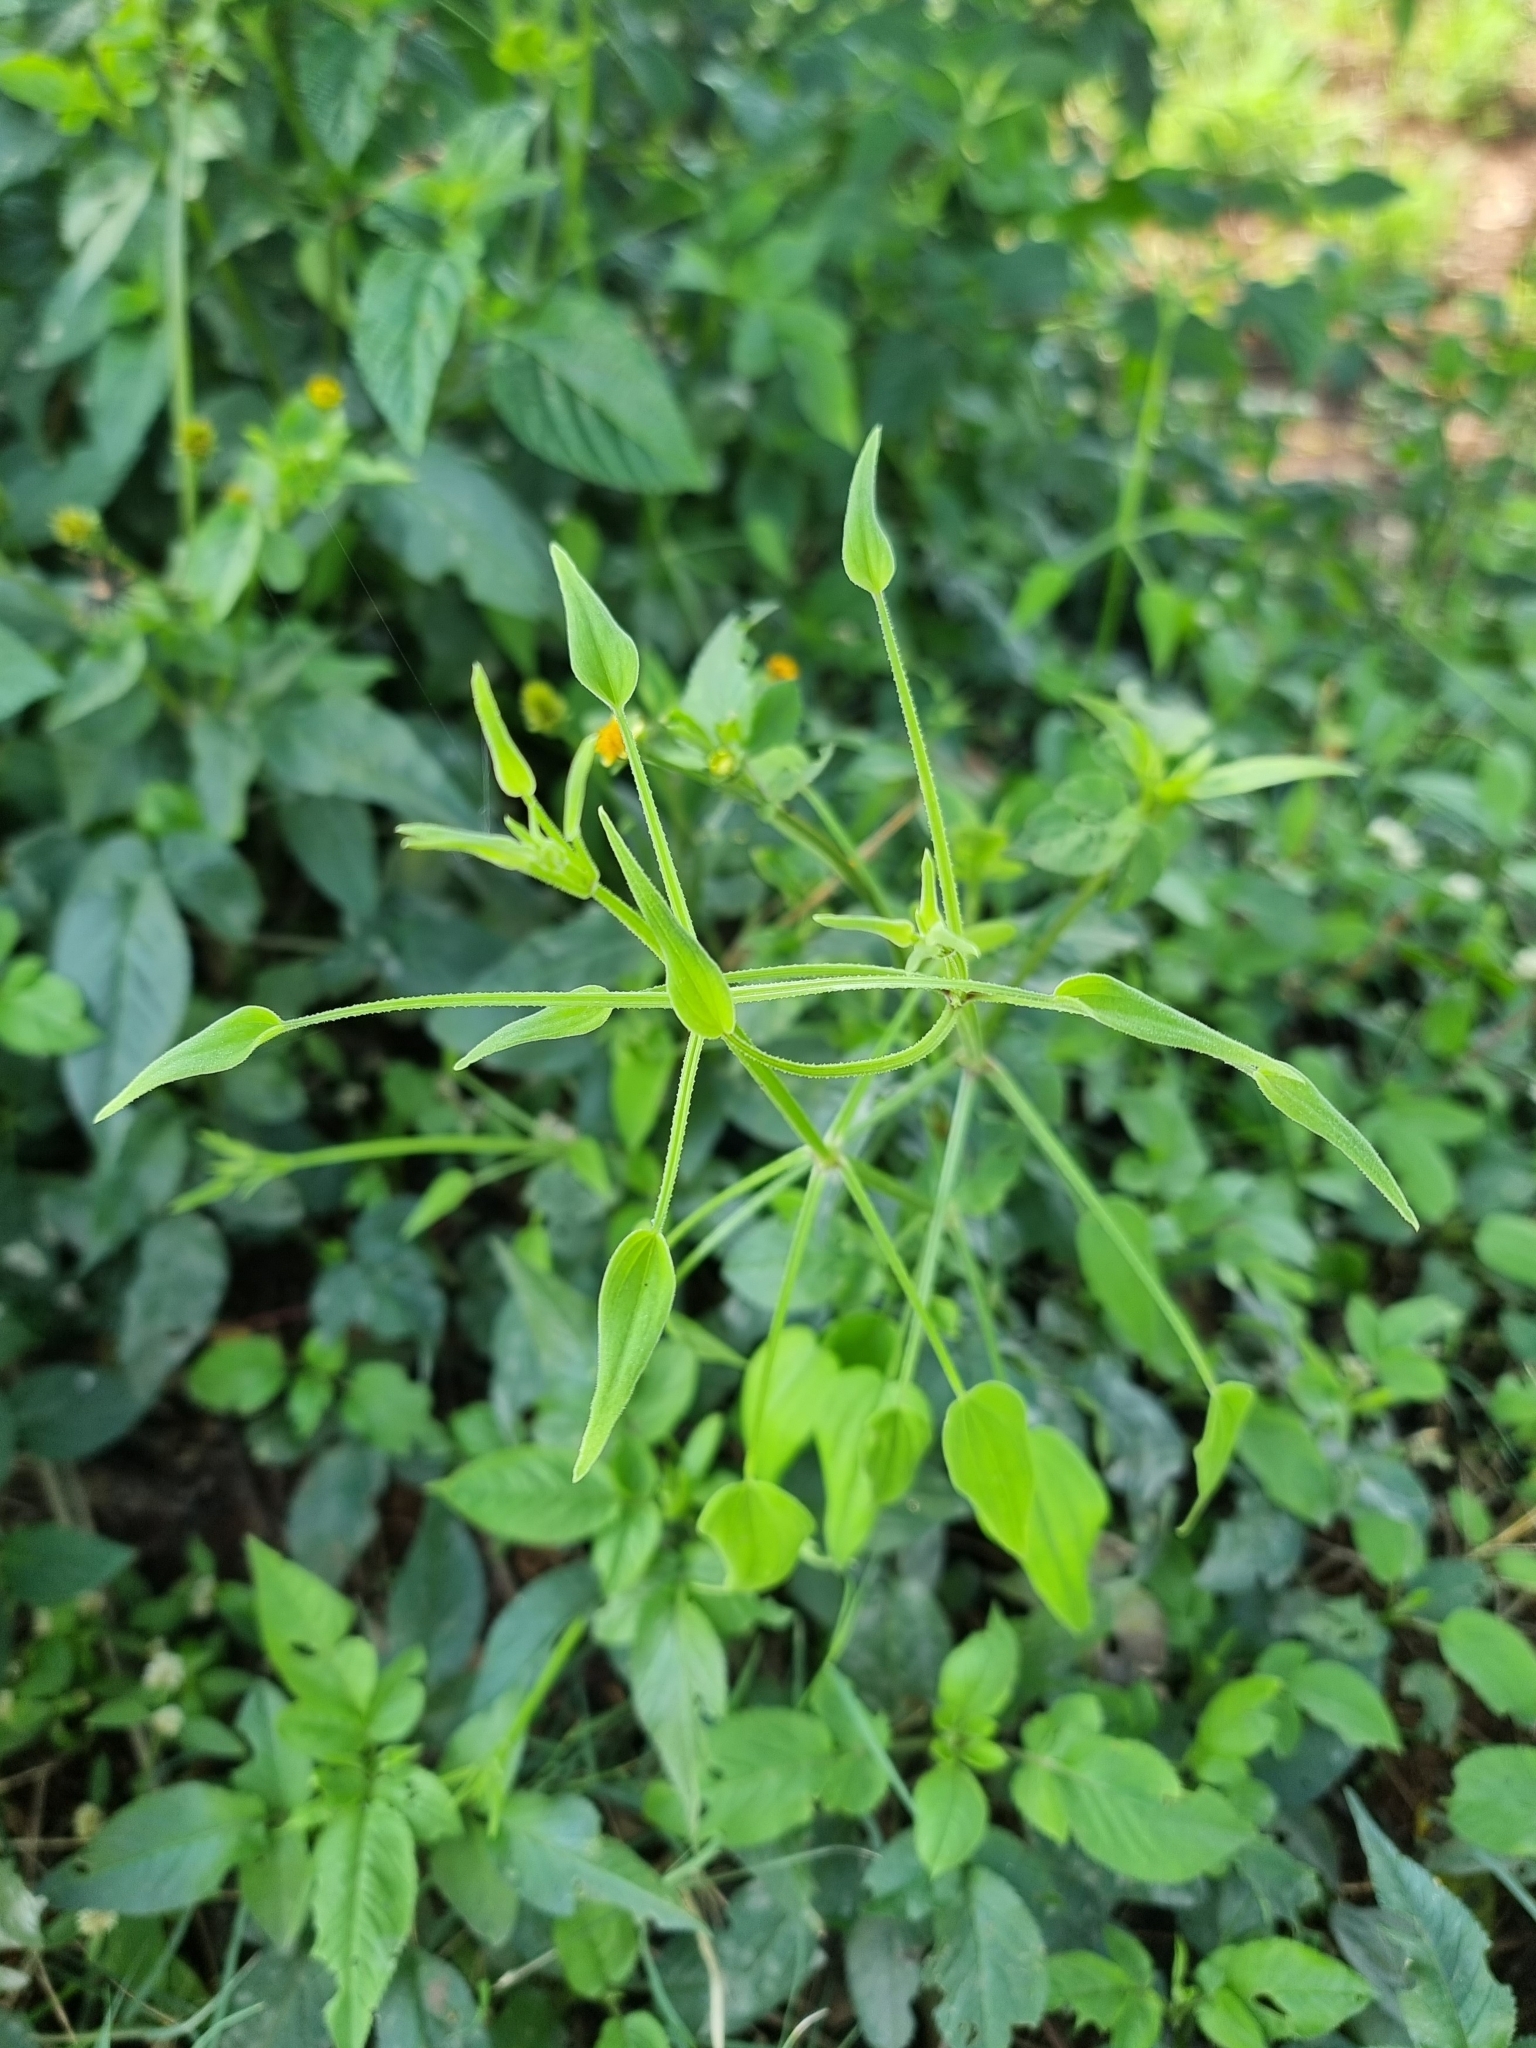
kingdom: Plantae
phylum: Tracheophyta
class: Magnoliopsida
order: Gentianales
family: Rubiaceae
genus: Rubia
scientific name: Rubia cordifolia
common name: Indian madder
